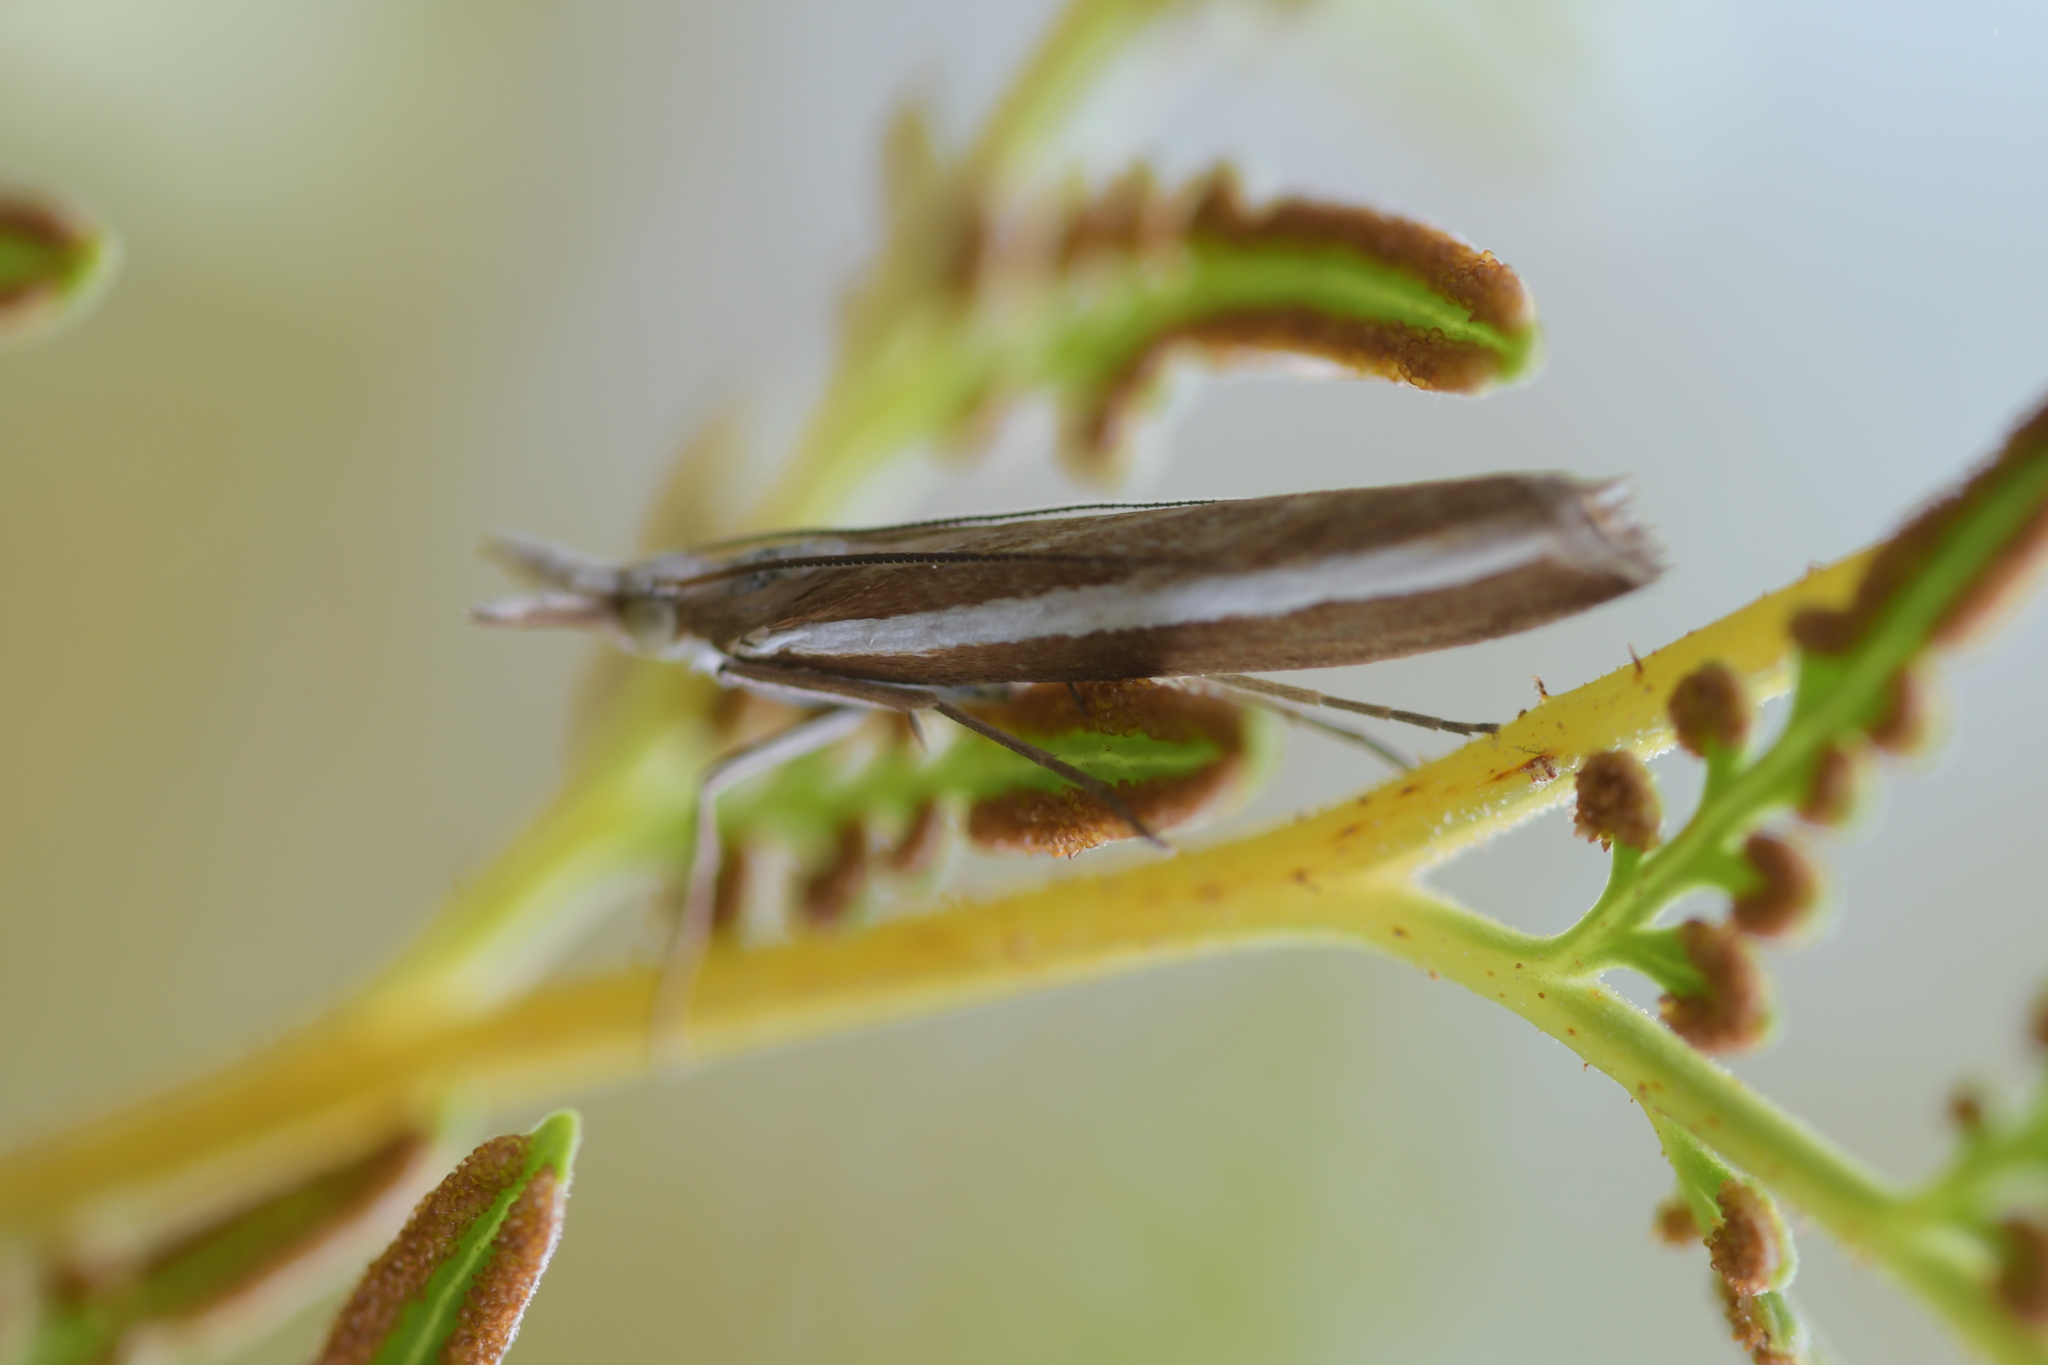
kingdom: Animalia
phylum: Arthropoda
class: Insecta
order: Lepidoptera
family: Crambidae
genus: Orocrambus
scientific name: Orocrambus vittellus
